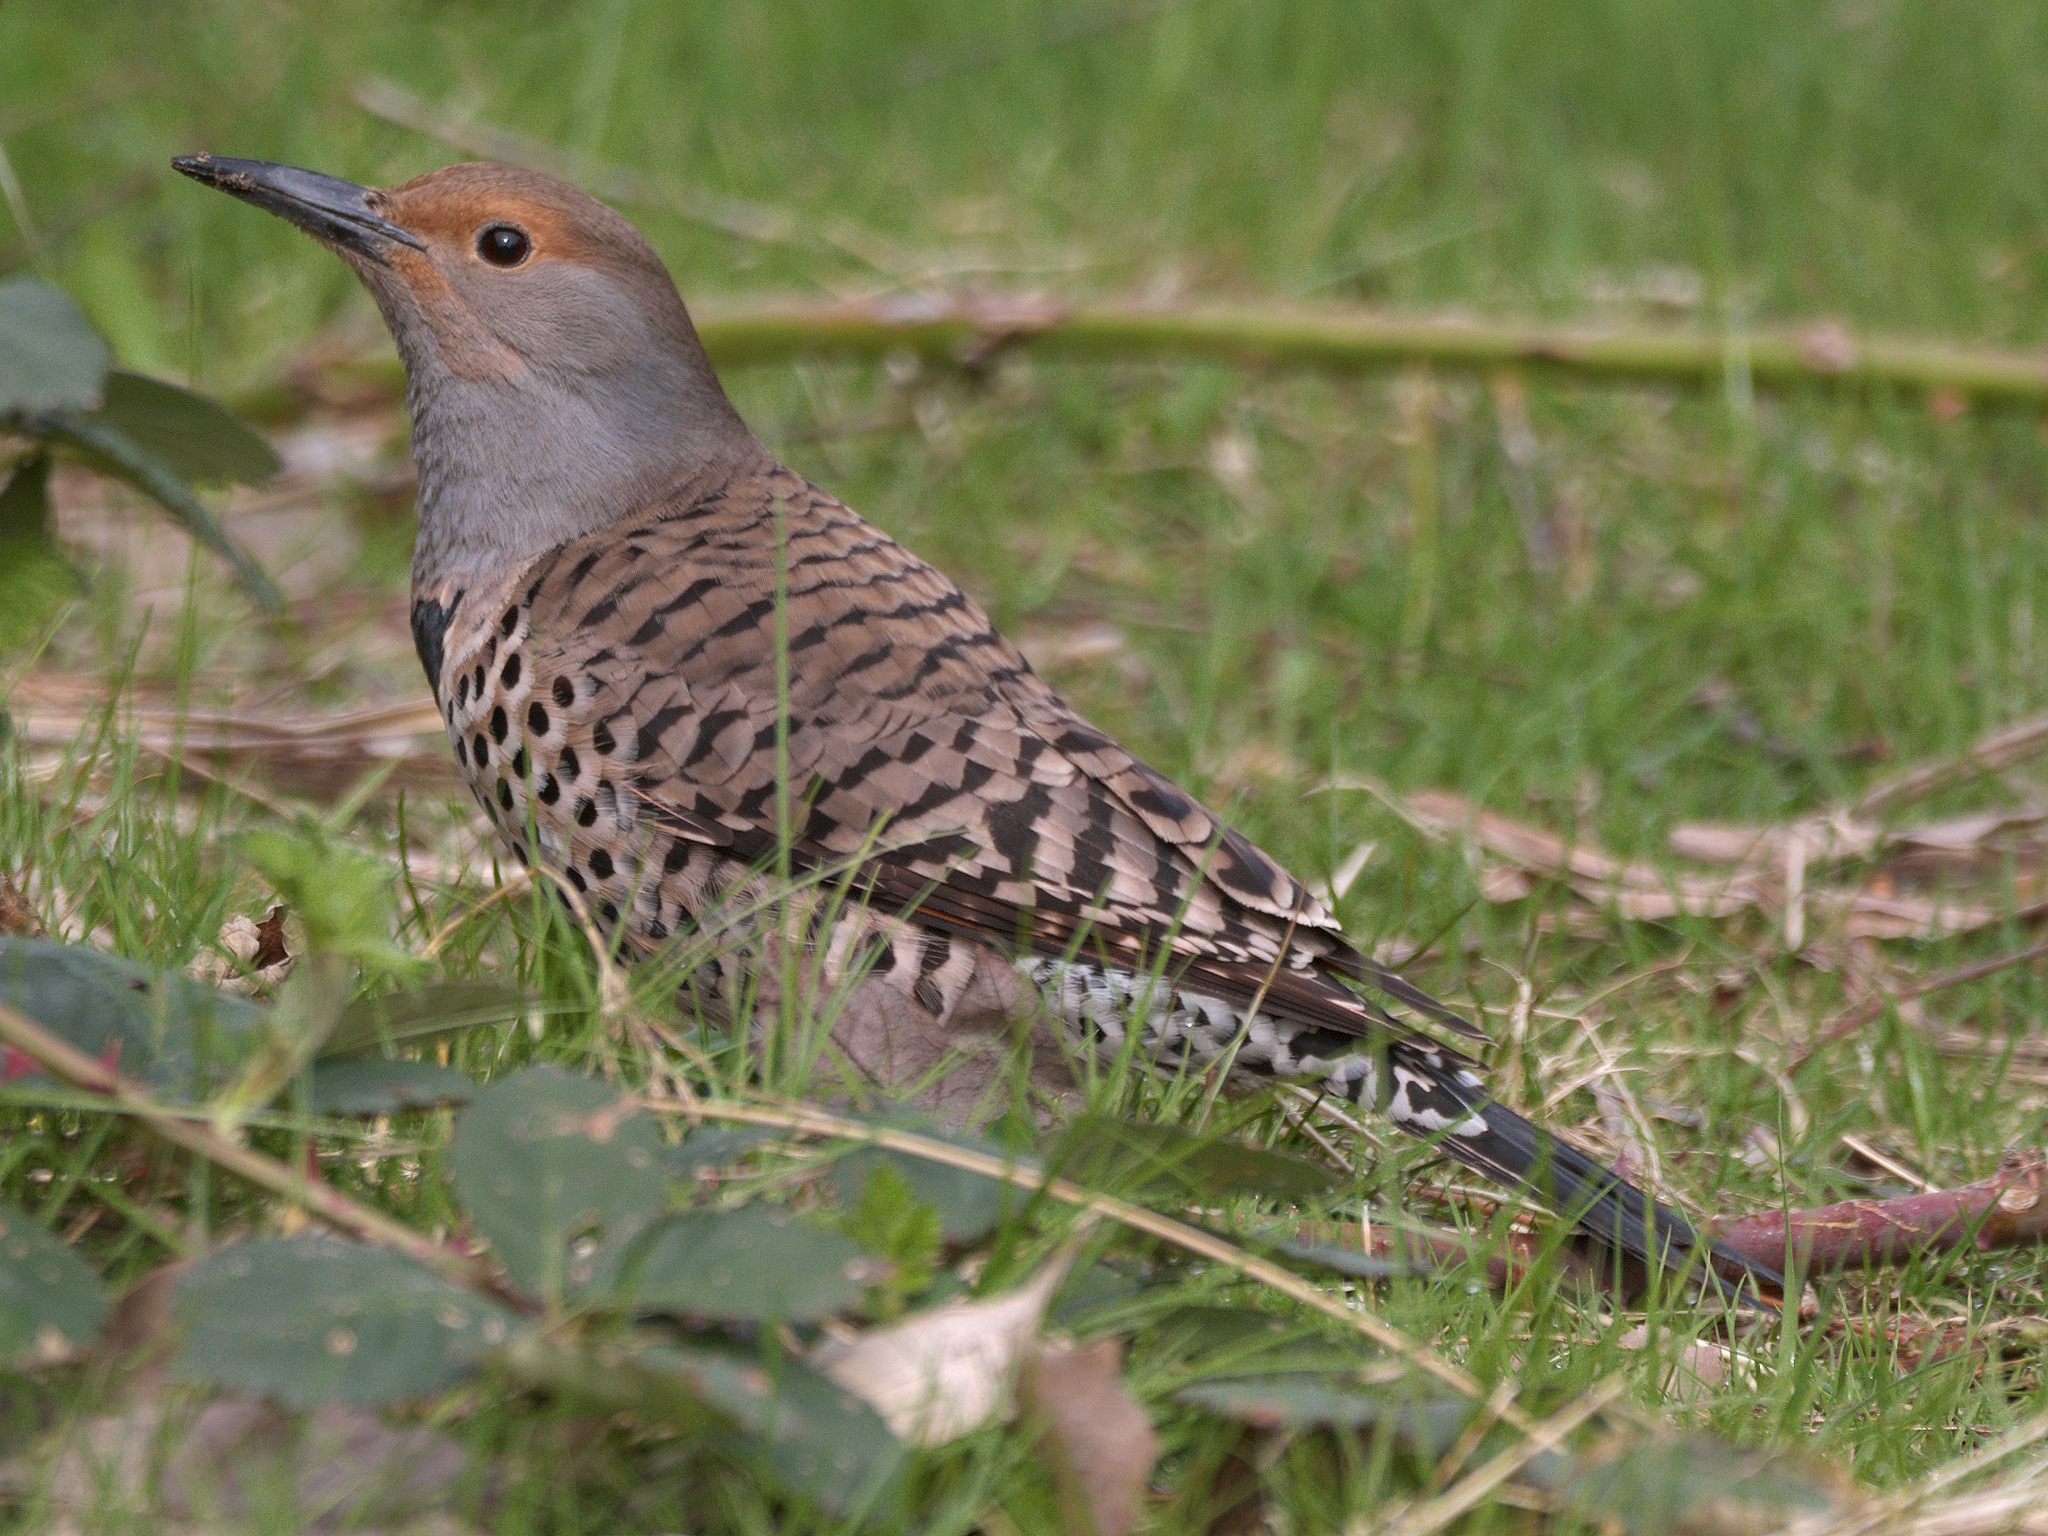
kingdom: Animalia
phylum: Chordata
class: Aves
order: Piciformes
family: Picidae
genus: Colaptes
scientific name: Colaptes auratus
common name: Northern flicker
